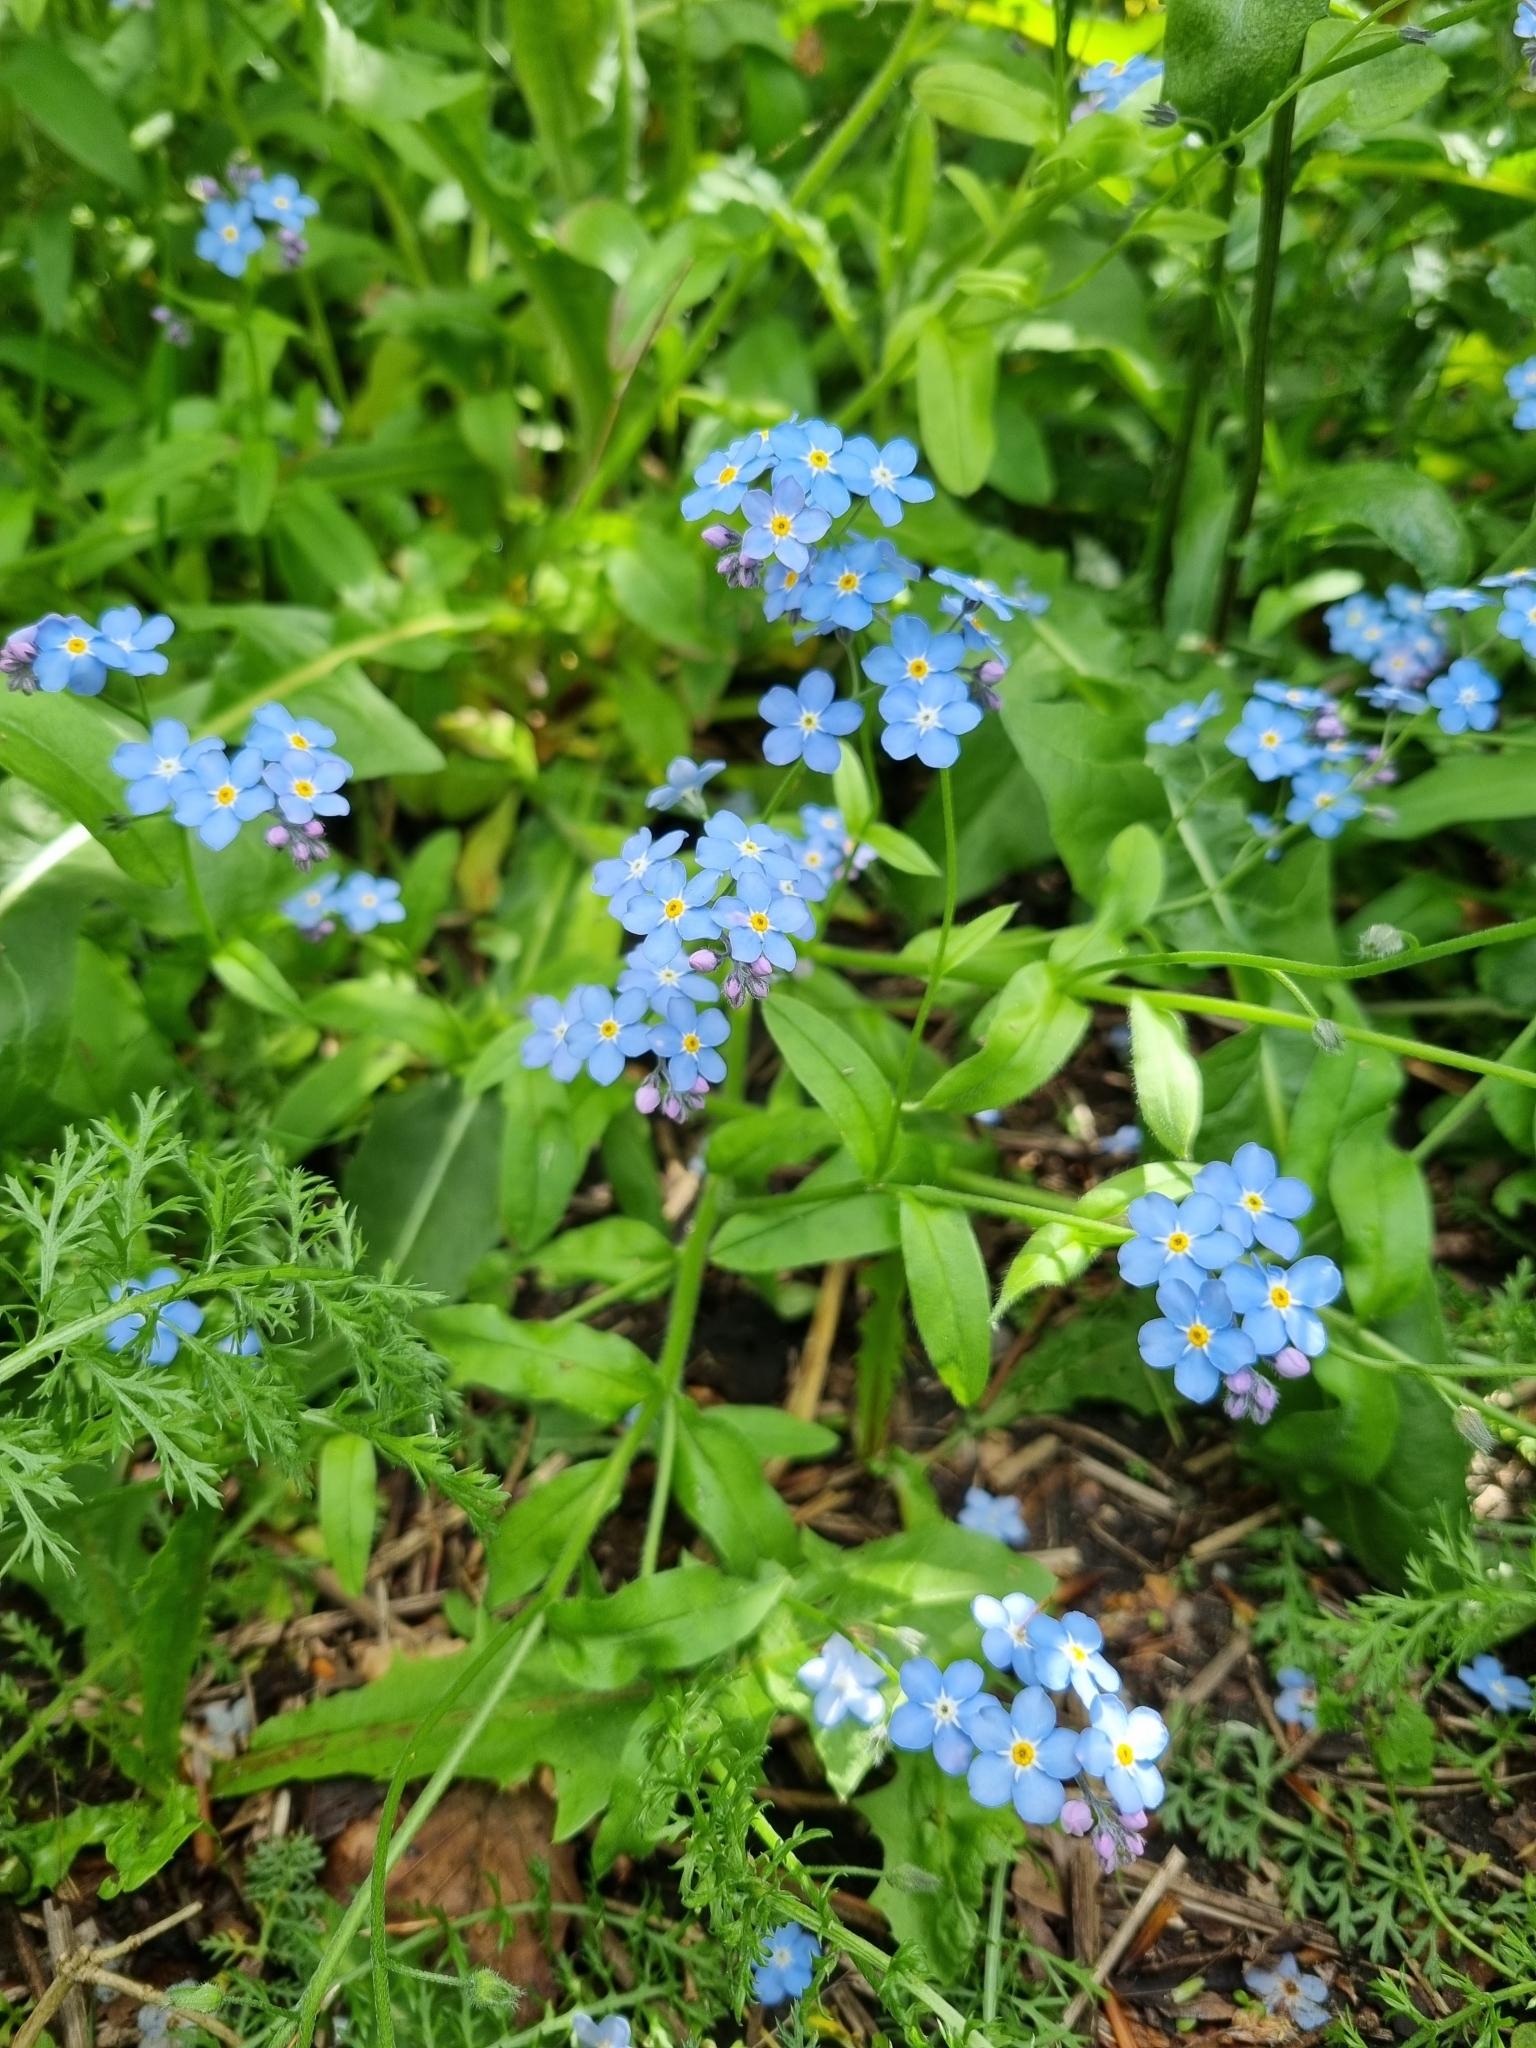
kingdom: Plantae
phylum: Tracheophyta
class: Magnoliopsida
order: Boraginales
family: Boraginaceae
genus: Myosotis
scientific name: Myosotis sylvatica
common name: Wood forget-me-not
